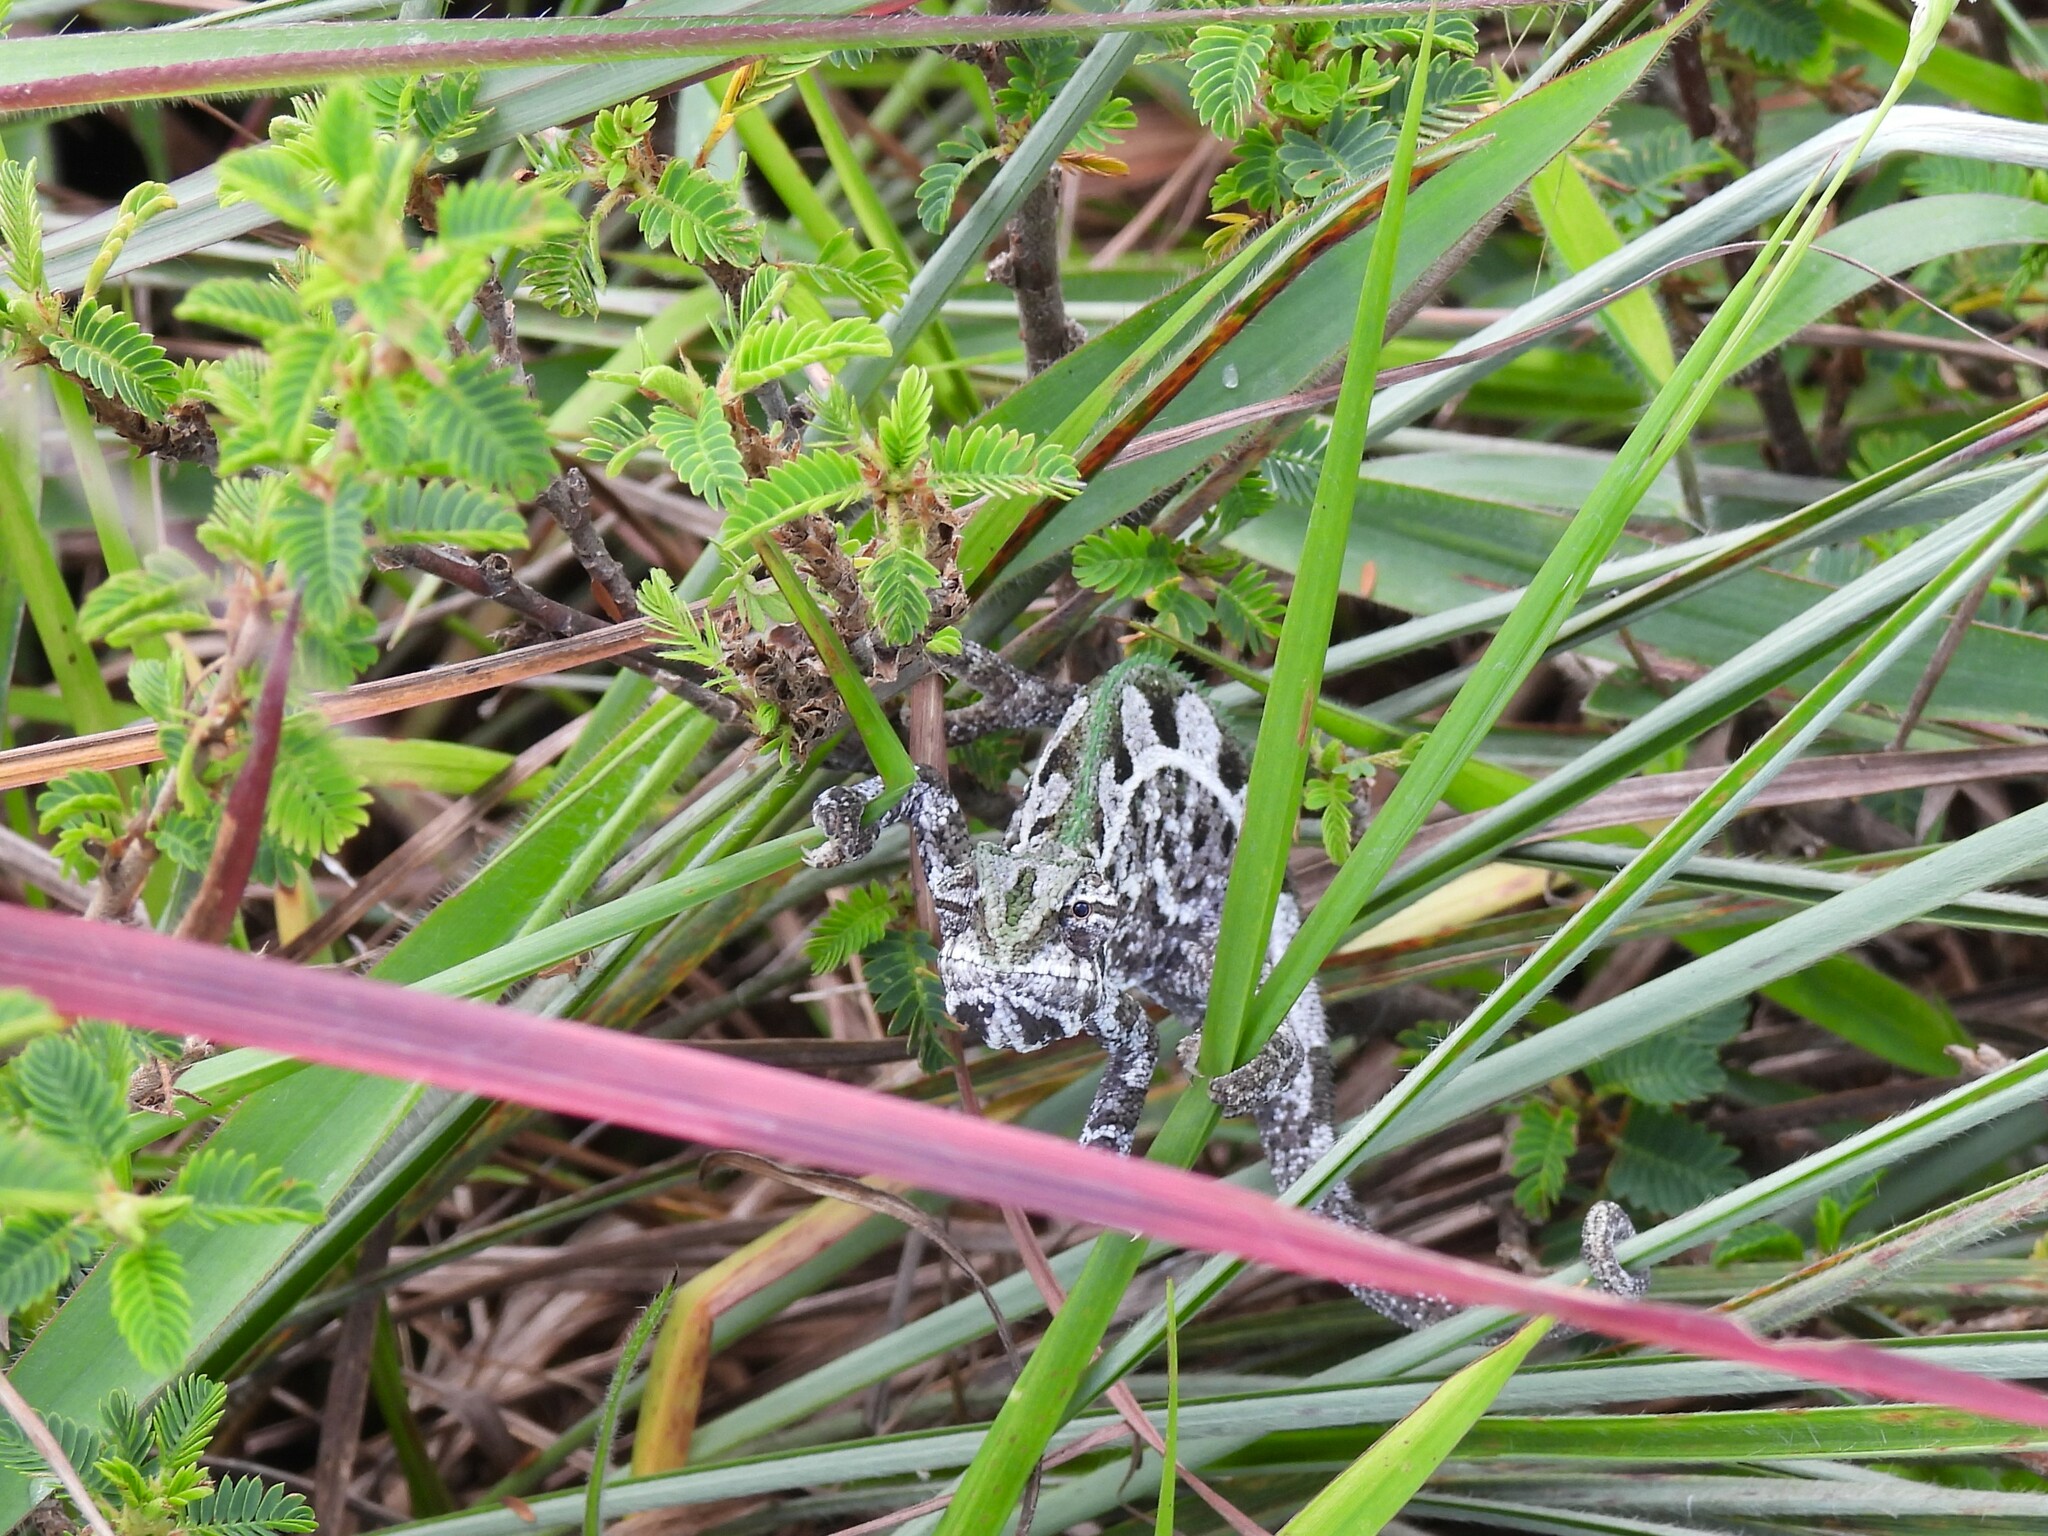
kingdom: Animalia
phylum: Chordata
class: Squamata
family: Chamaeleonidae
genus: Trioceros
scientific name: Trioceros goetzei
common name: Ilolo chameleon
